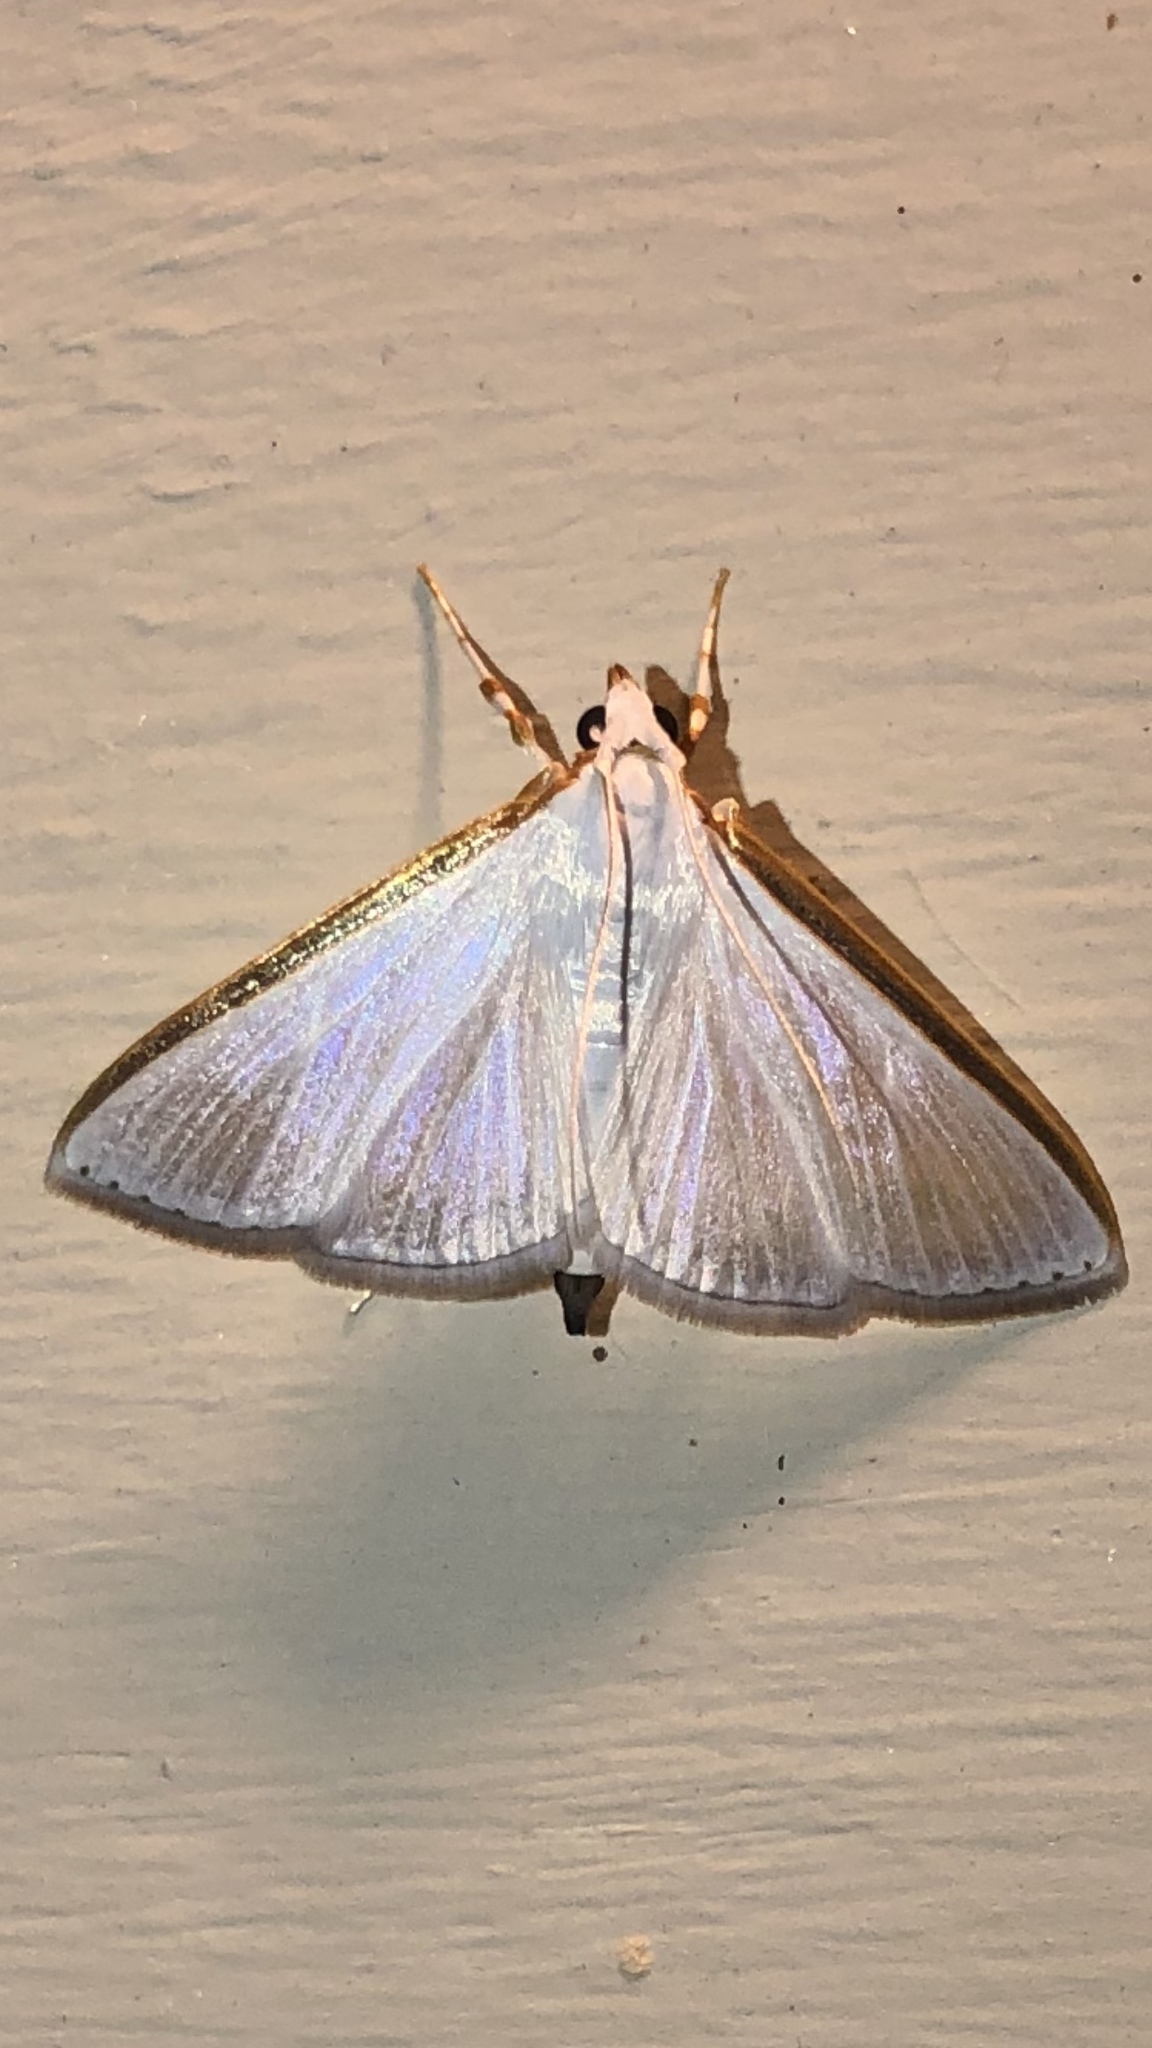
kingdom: Animalia
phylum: Arthropoda
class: Insecta
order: Lepidoptera
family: Crambidae
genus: Diaphania
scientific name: Diaphania costata
